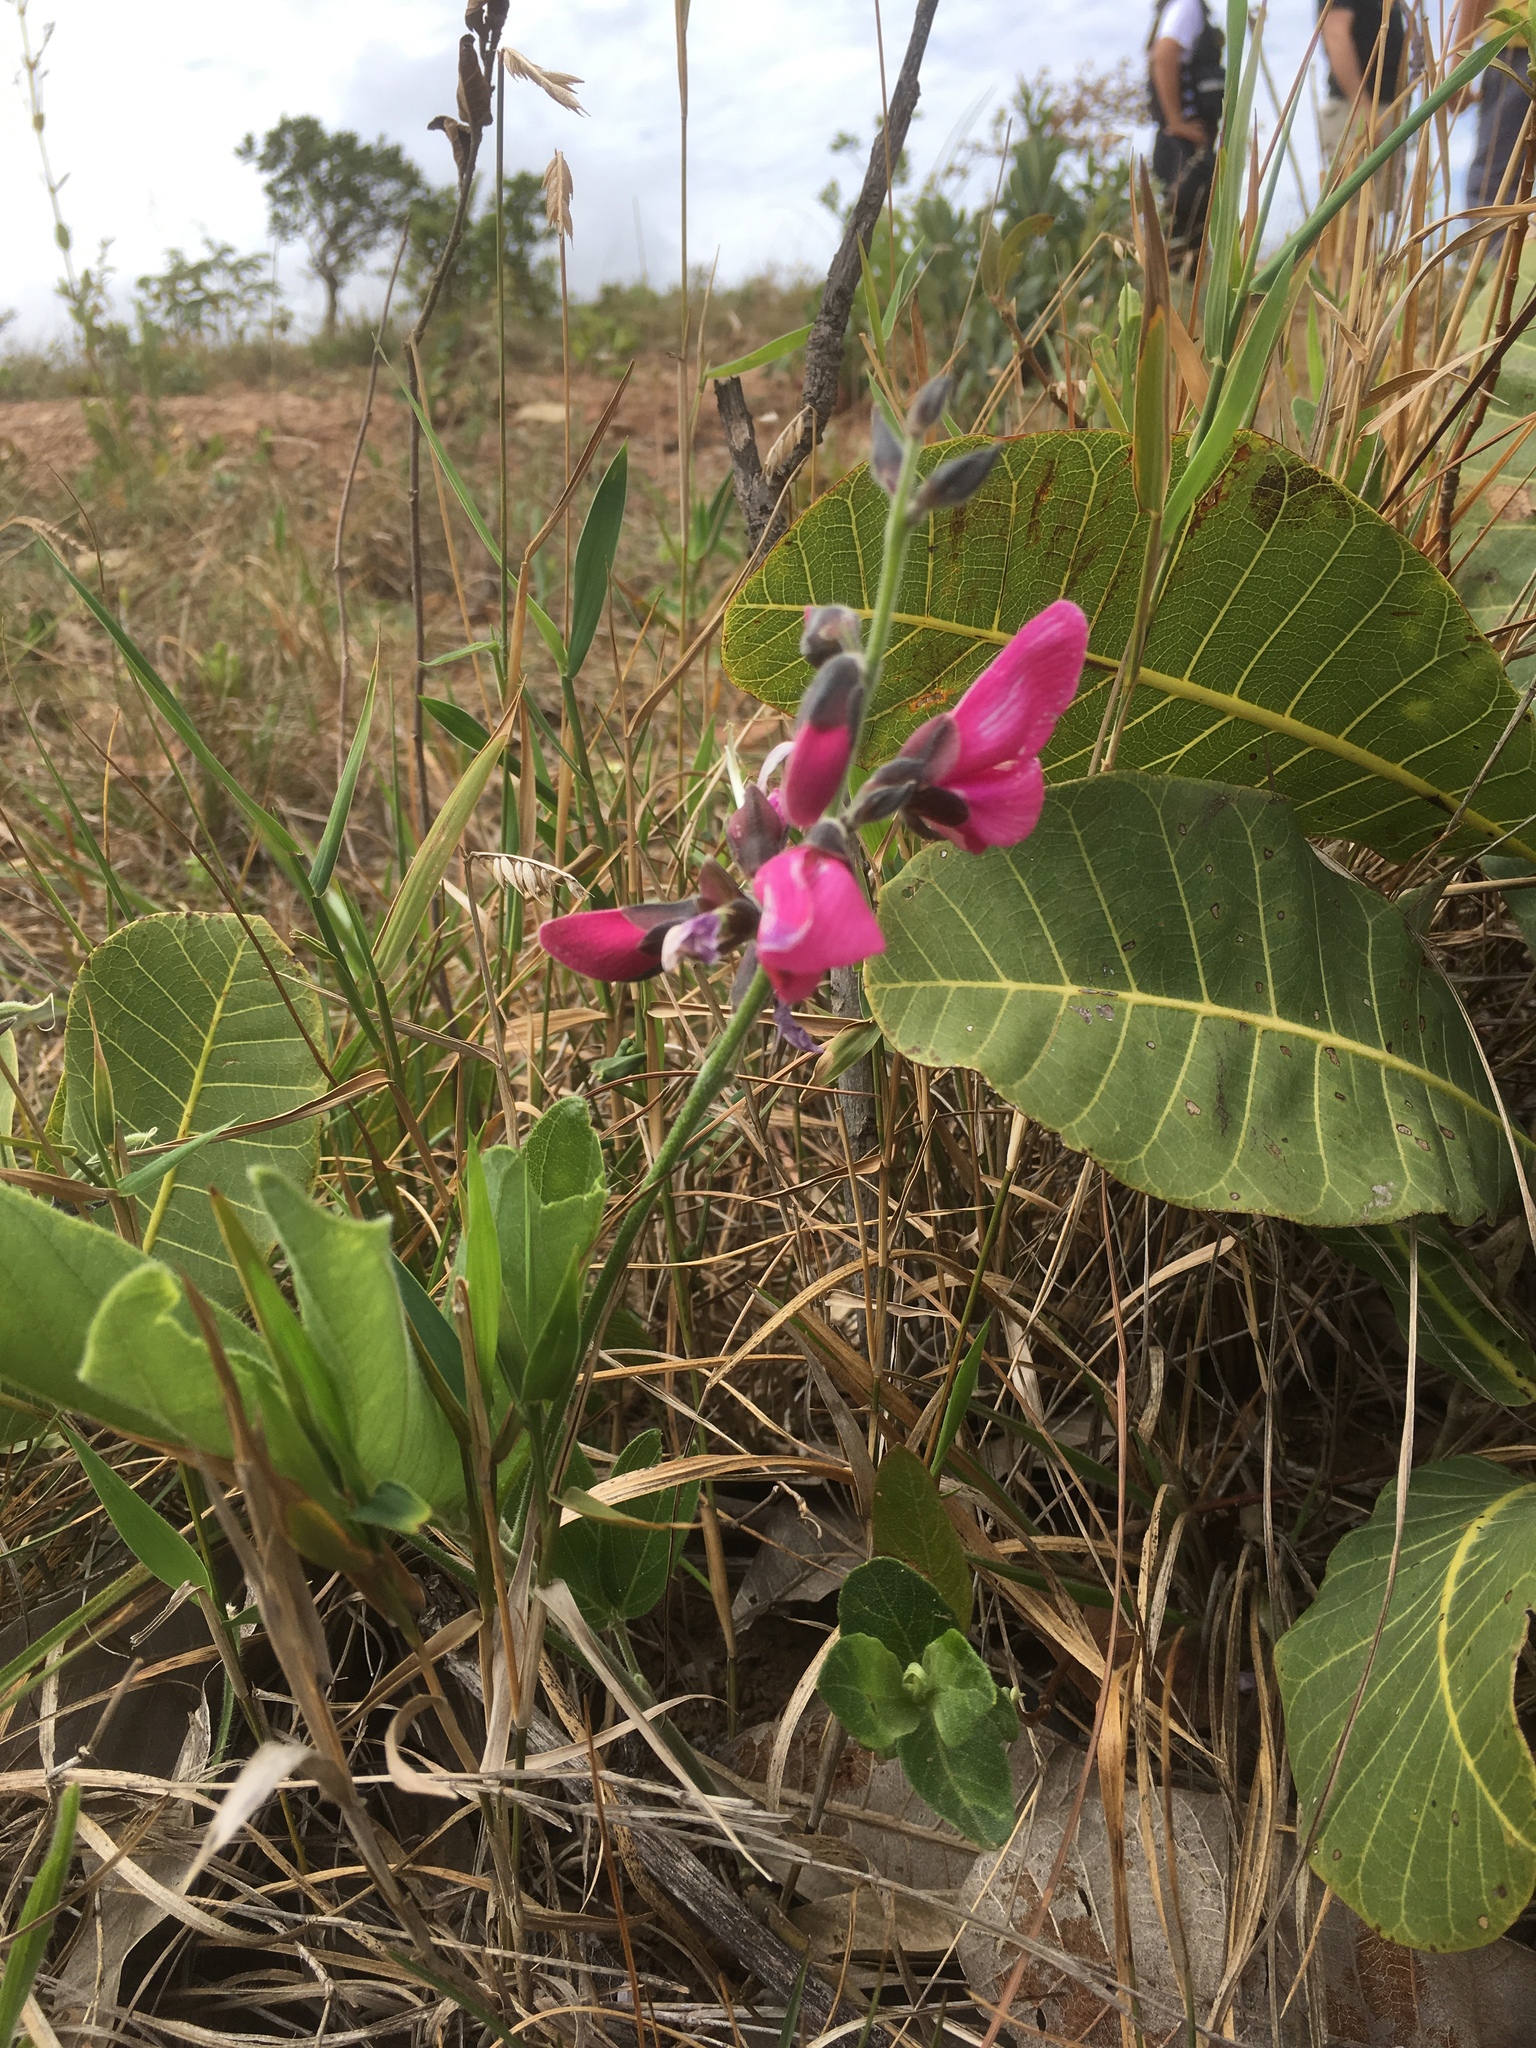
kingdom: Plantae
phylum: Tracheophyta
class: Magnoliopsida
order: Fabales
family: Fabaceae
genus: Cerradicola
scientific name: Cerradicola peduncularis
